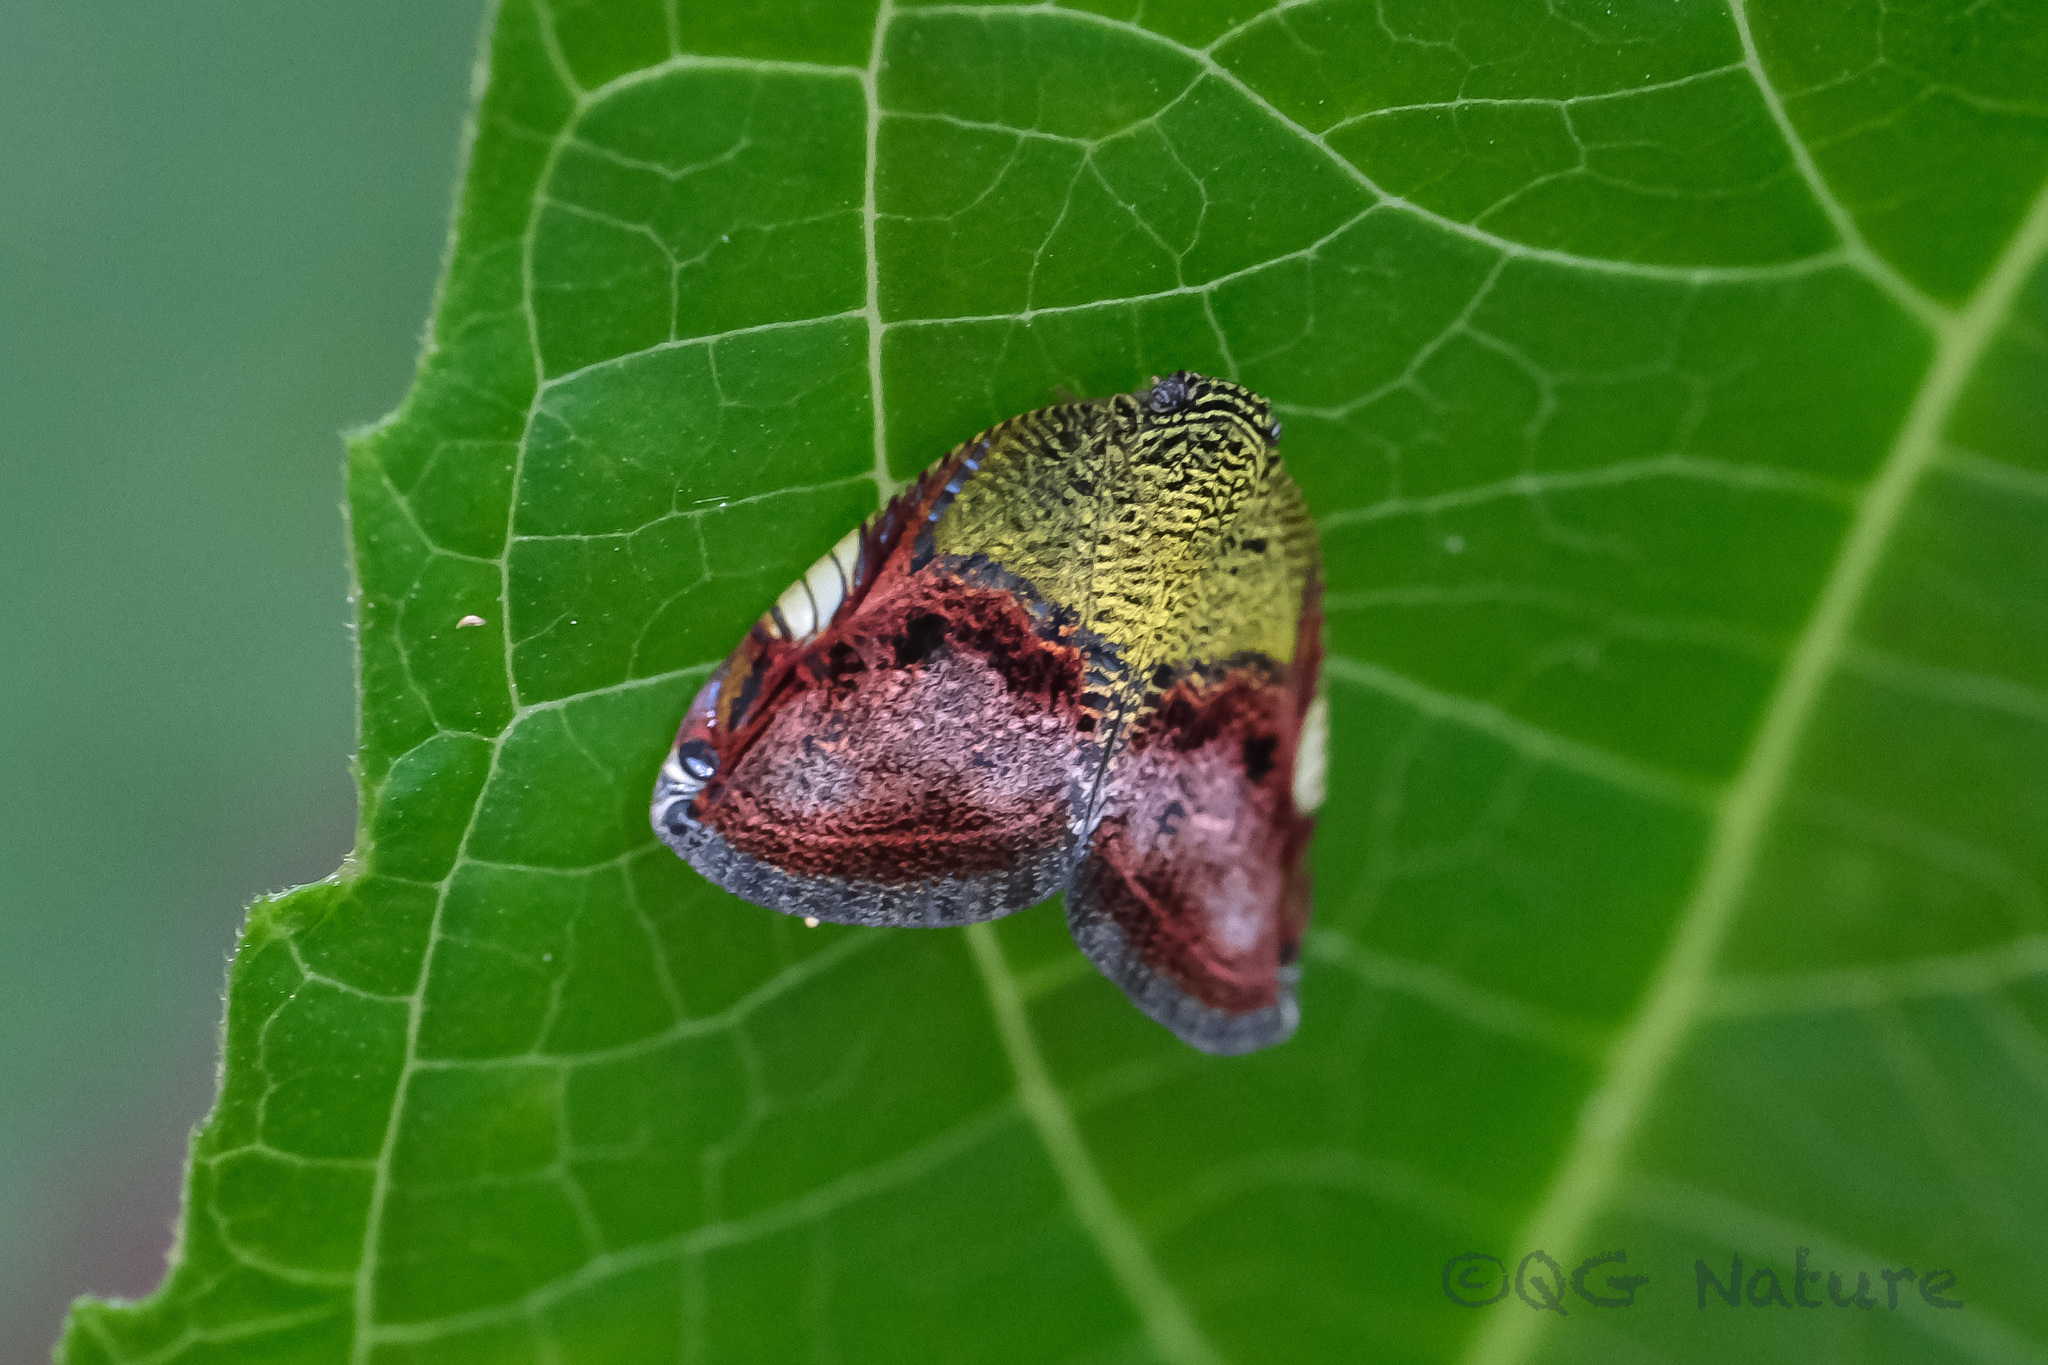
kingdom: Animalia
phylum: Arthropoda
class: Insecta
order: Hemiptera
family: Ricaniidae
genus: Ricanula
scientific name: Ricanula pulverosa
